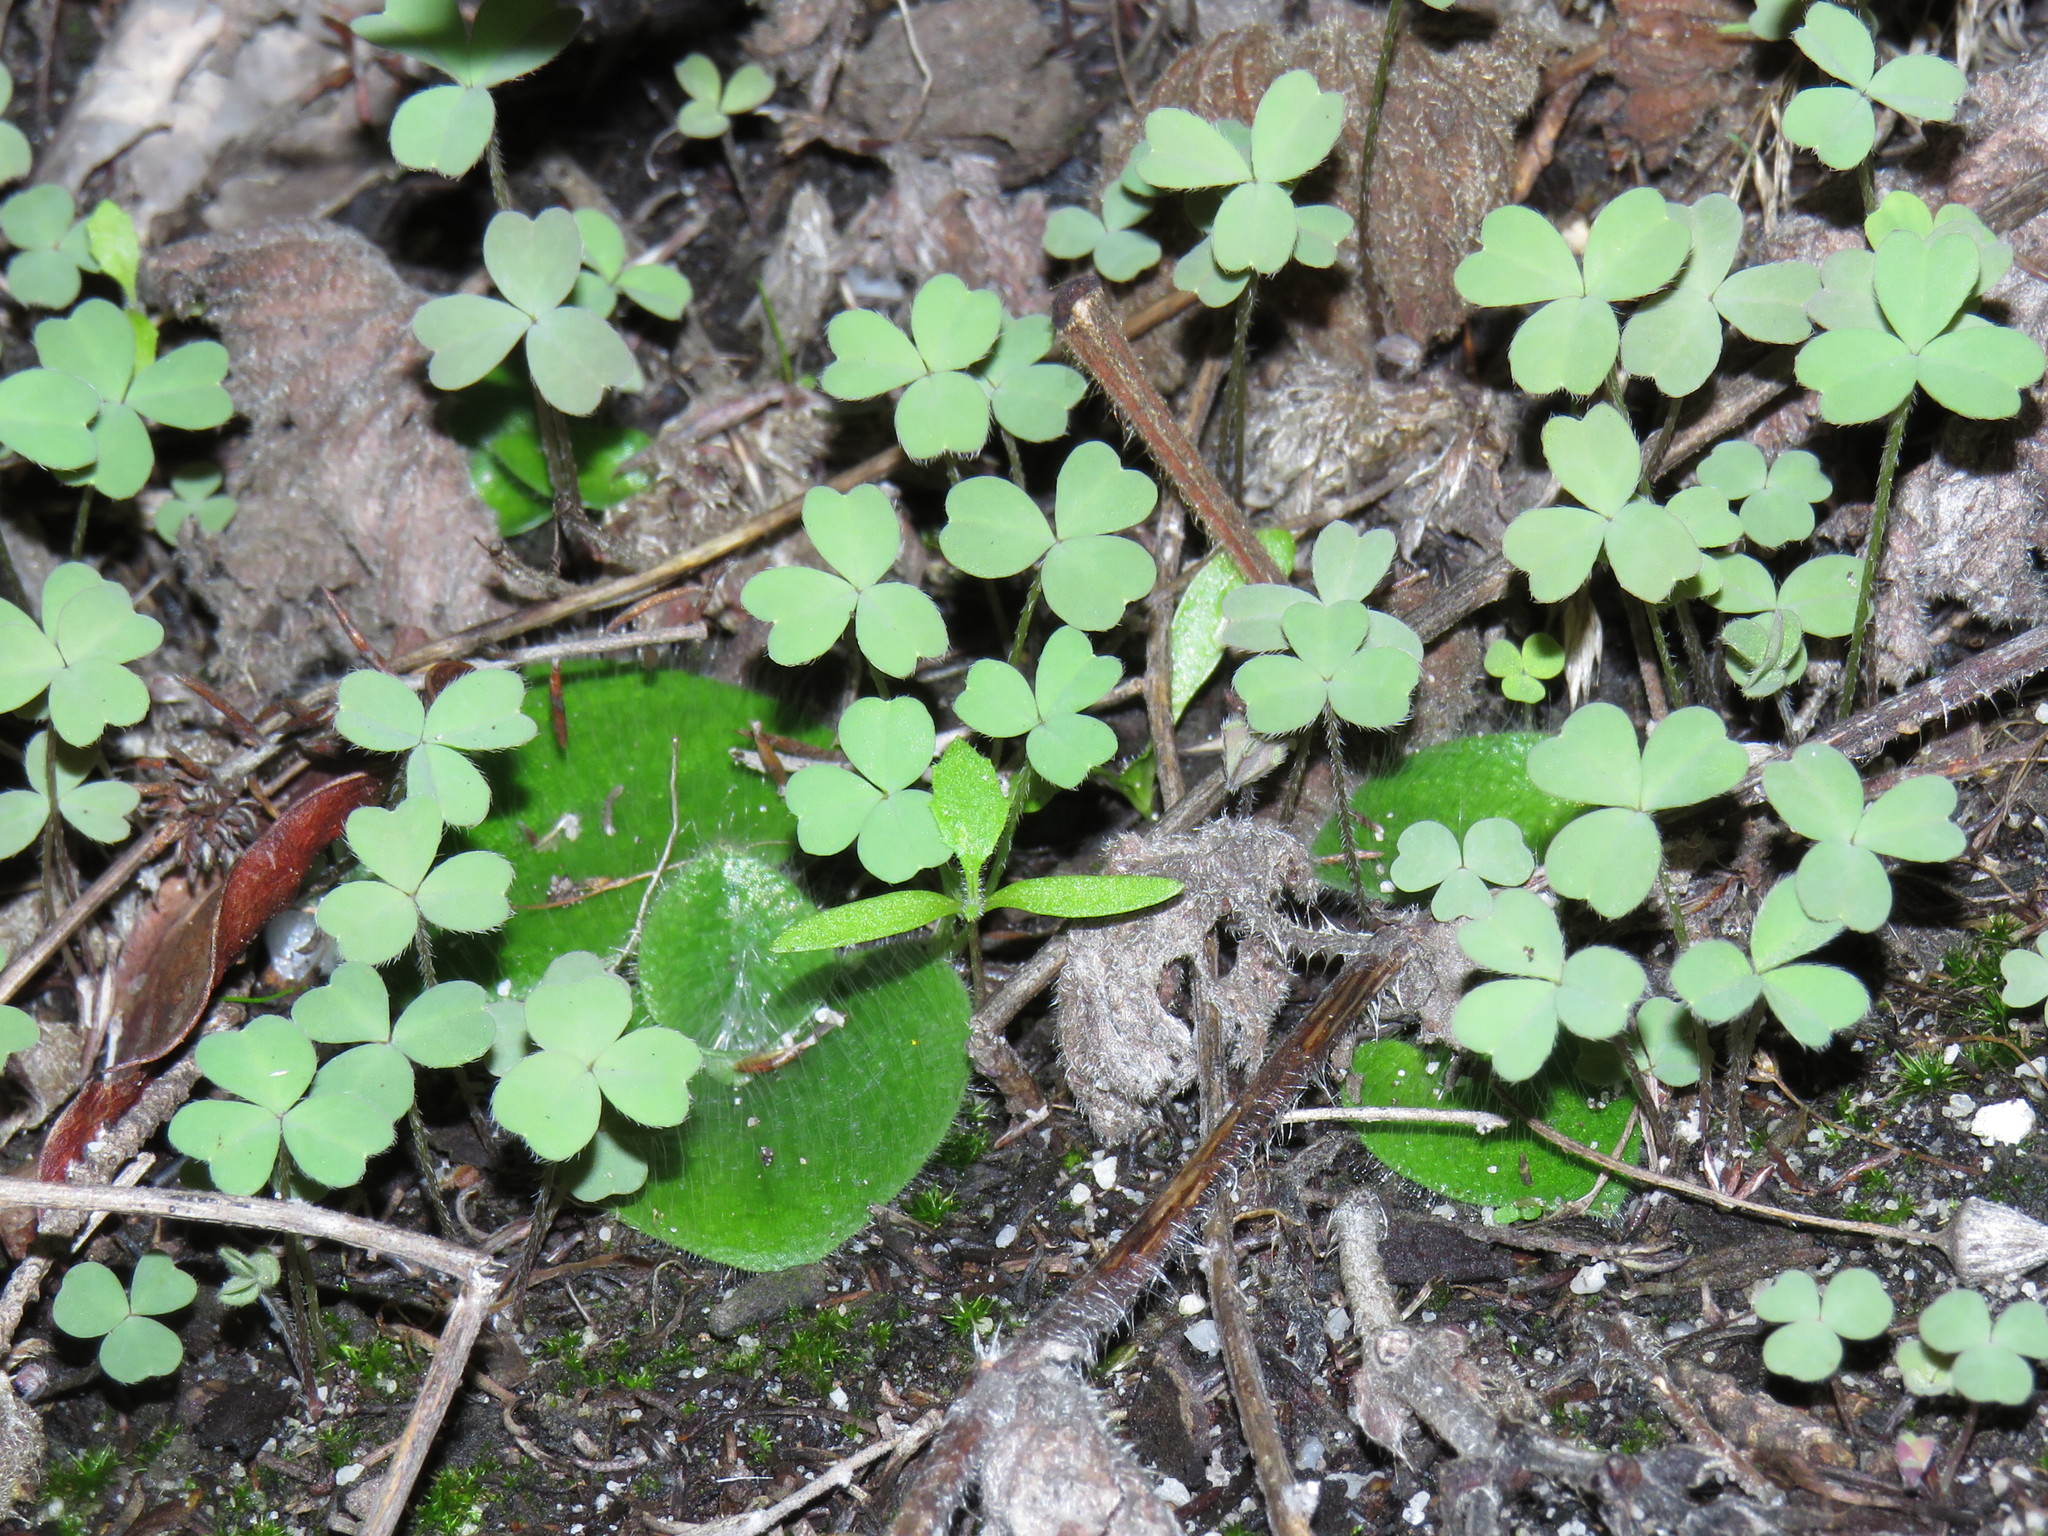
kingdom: Plantae
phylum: Tracheophyta
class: Magnoliopsida
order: Oxalidales
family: Oxalidaceae
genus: Oxalis
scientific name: Oxalis obtusa
